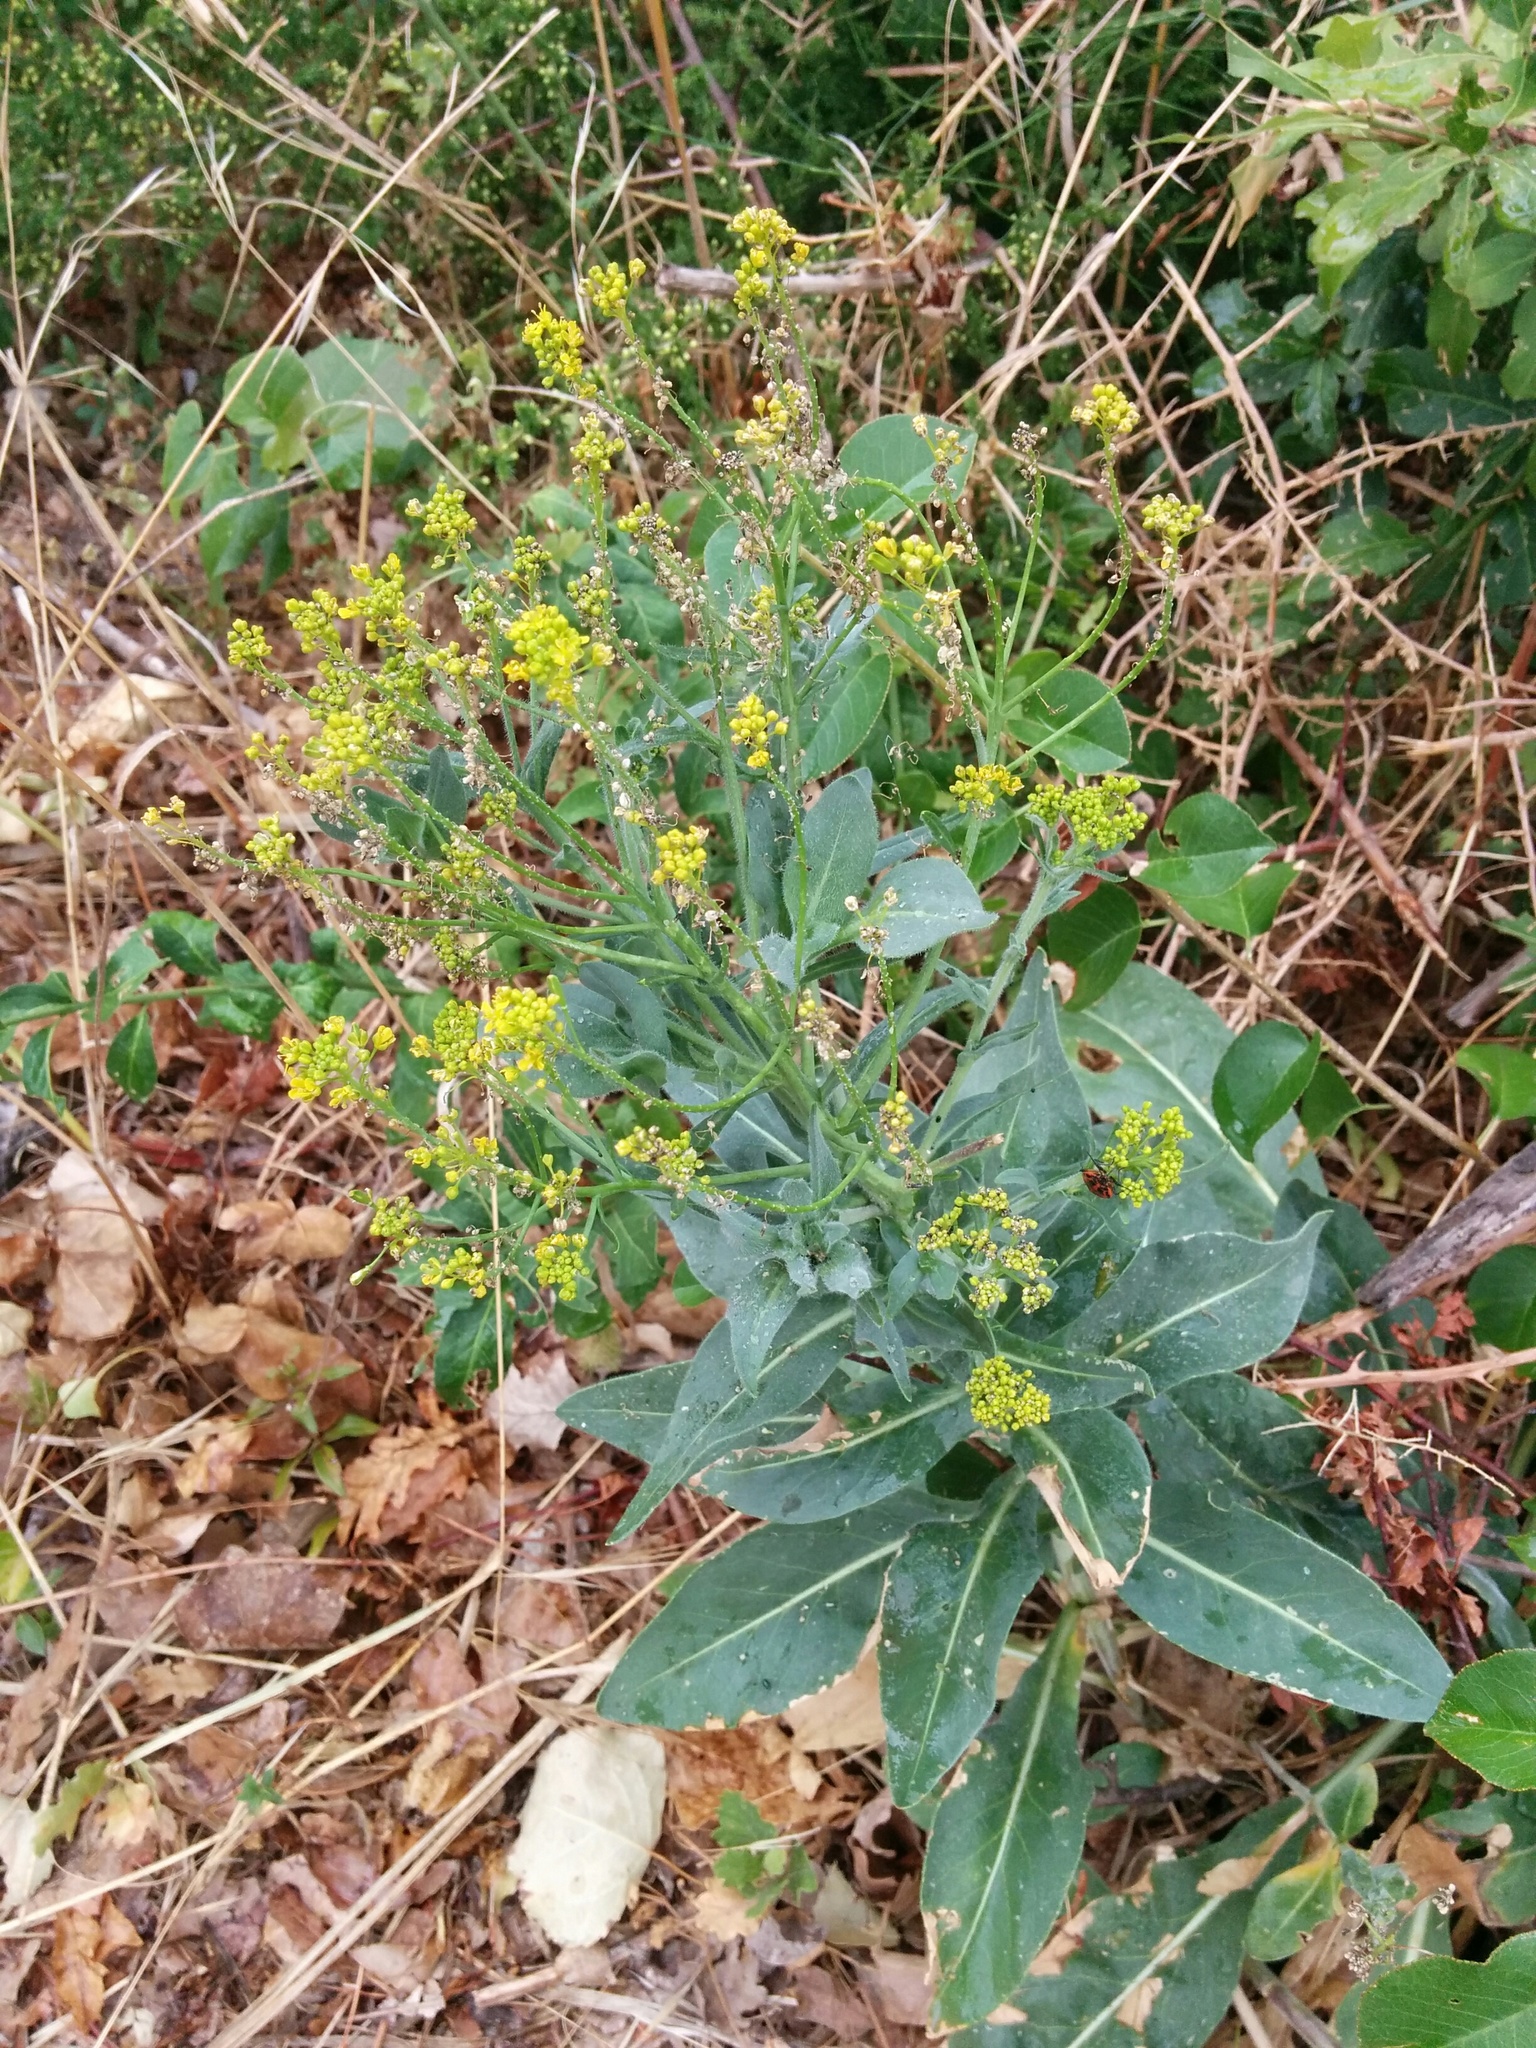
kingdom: Plantae
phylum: Tracheophyta
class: Magnoliopsida
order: Brassicales
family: Brassicaceae
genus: Isatis
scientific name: Isatis tinctoria
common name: Woad
